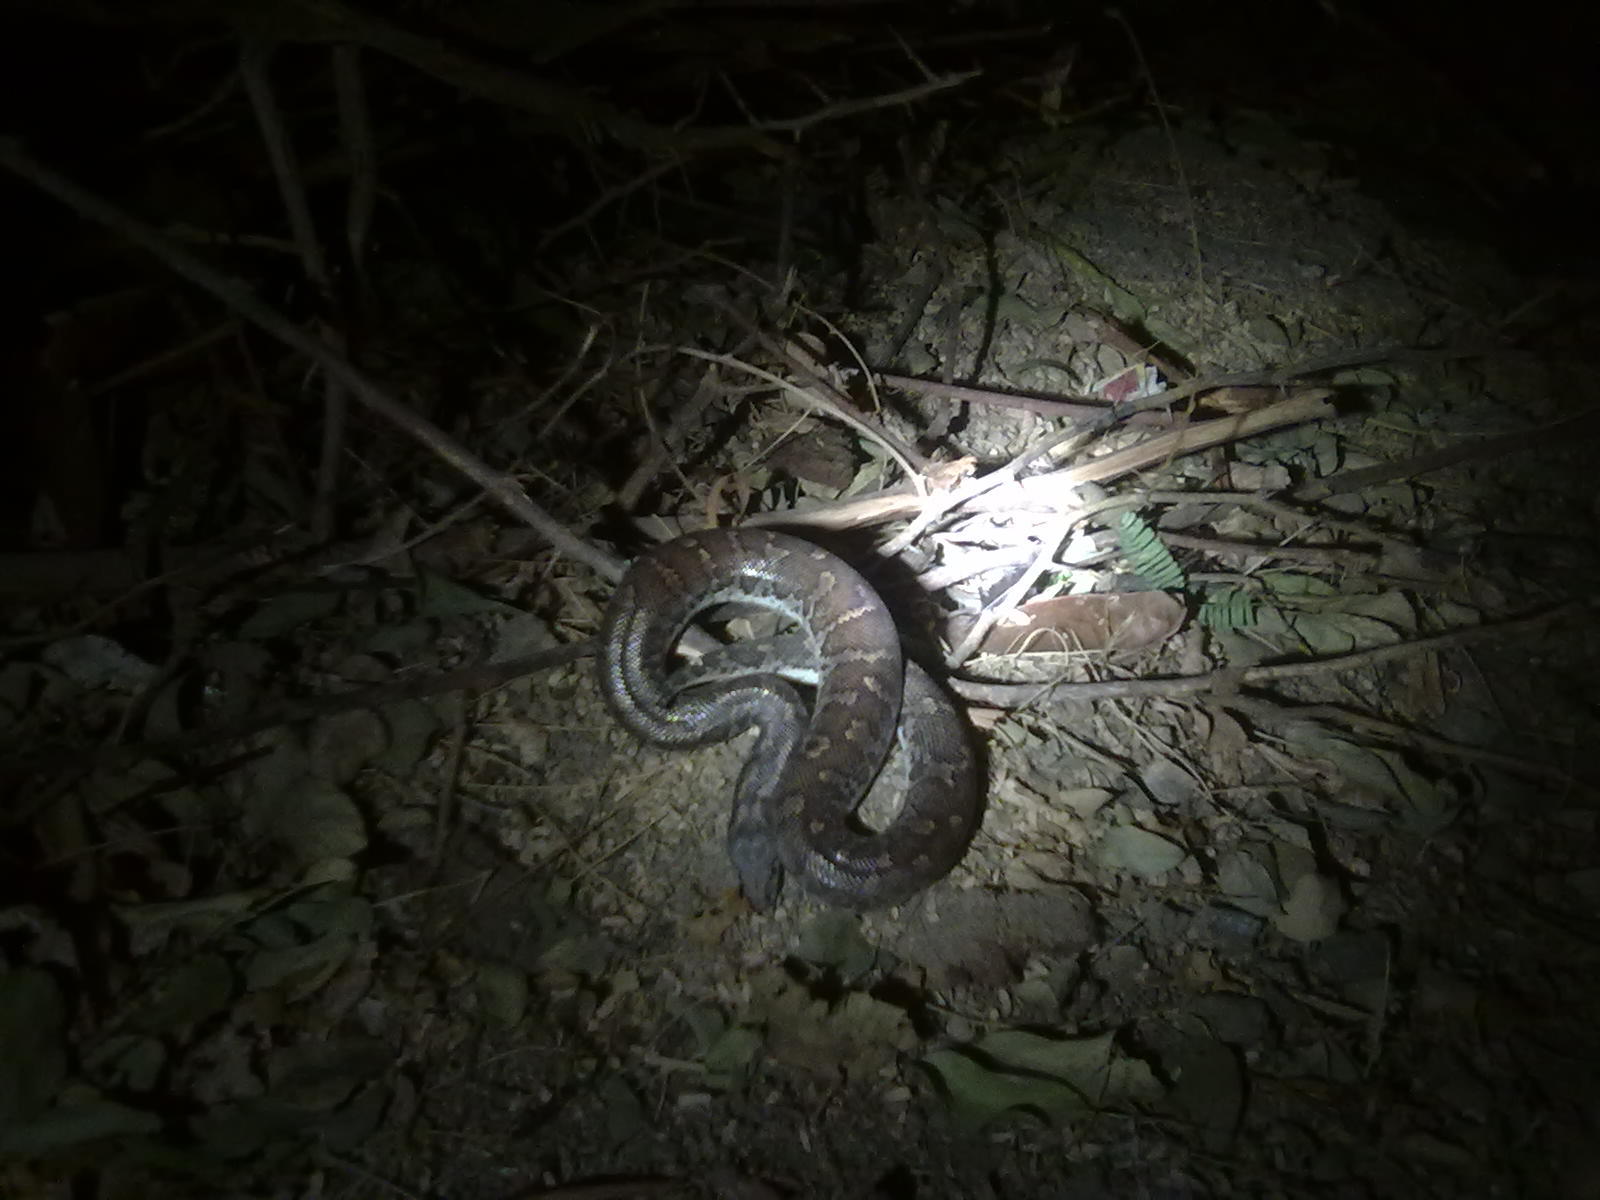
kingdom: Animalia
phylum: Chordata
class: Squamata
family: Boidae
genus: Eryx
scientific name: Eryx conicus
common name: Rough-tailed sand boa
